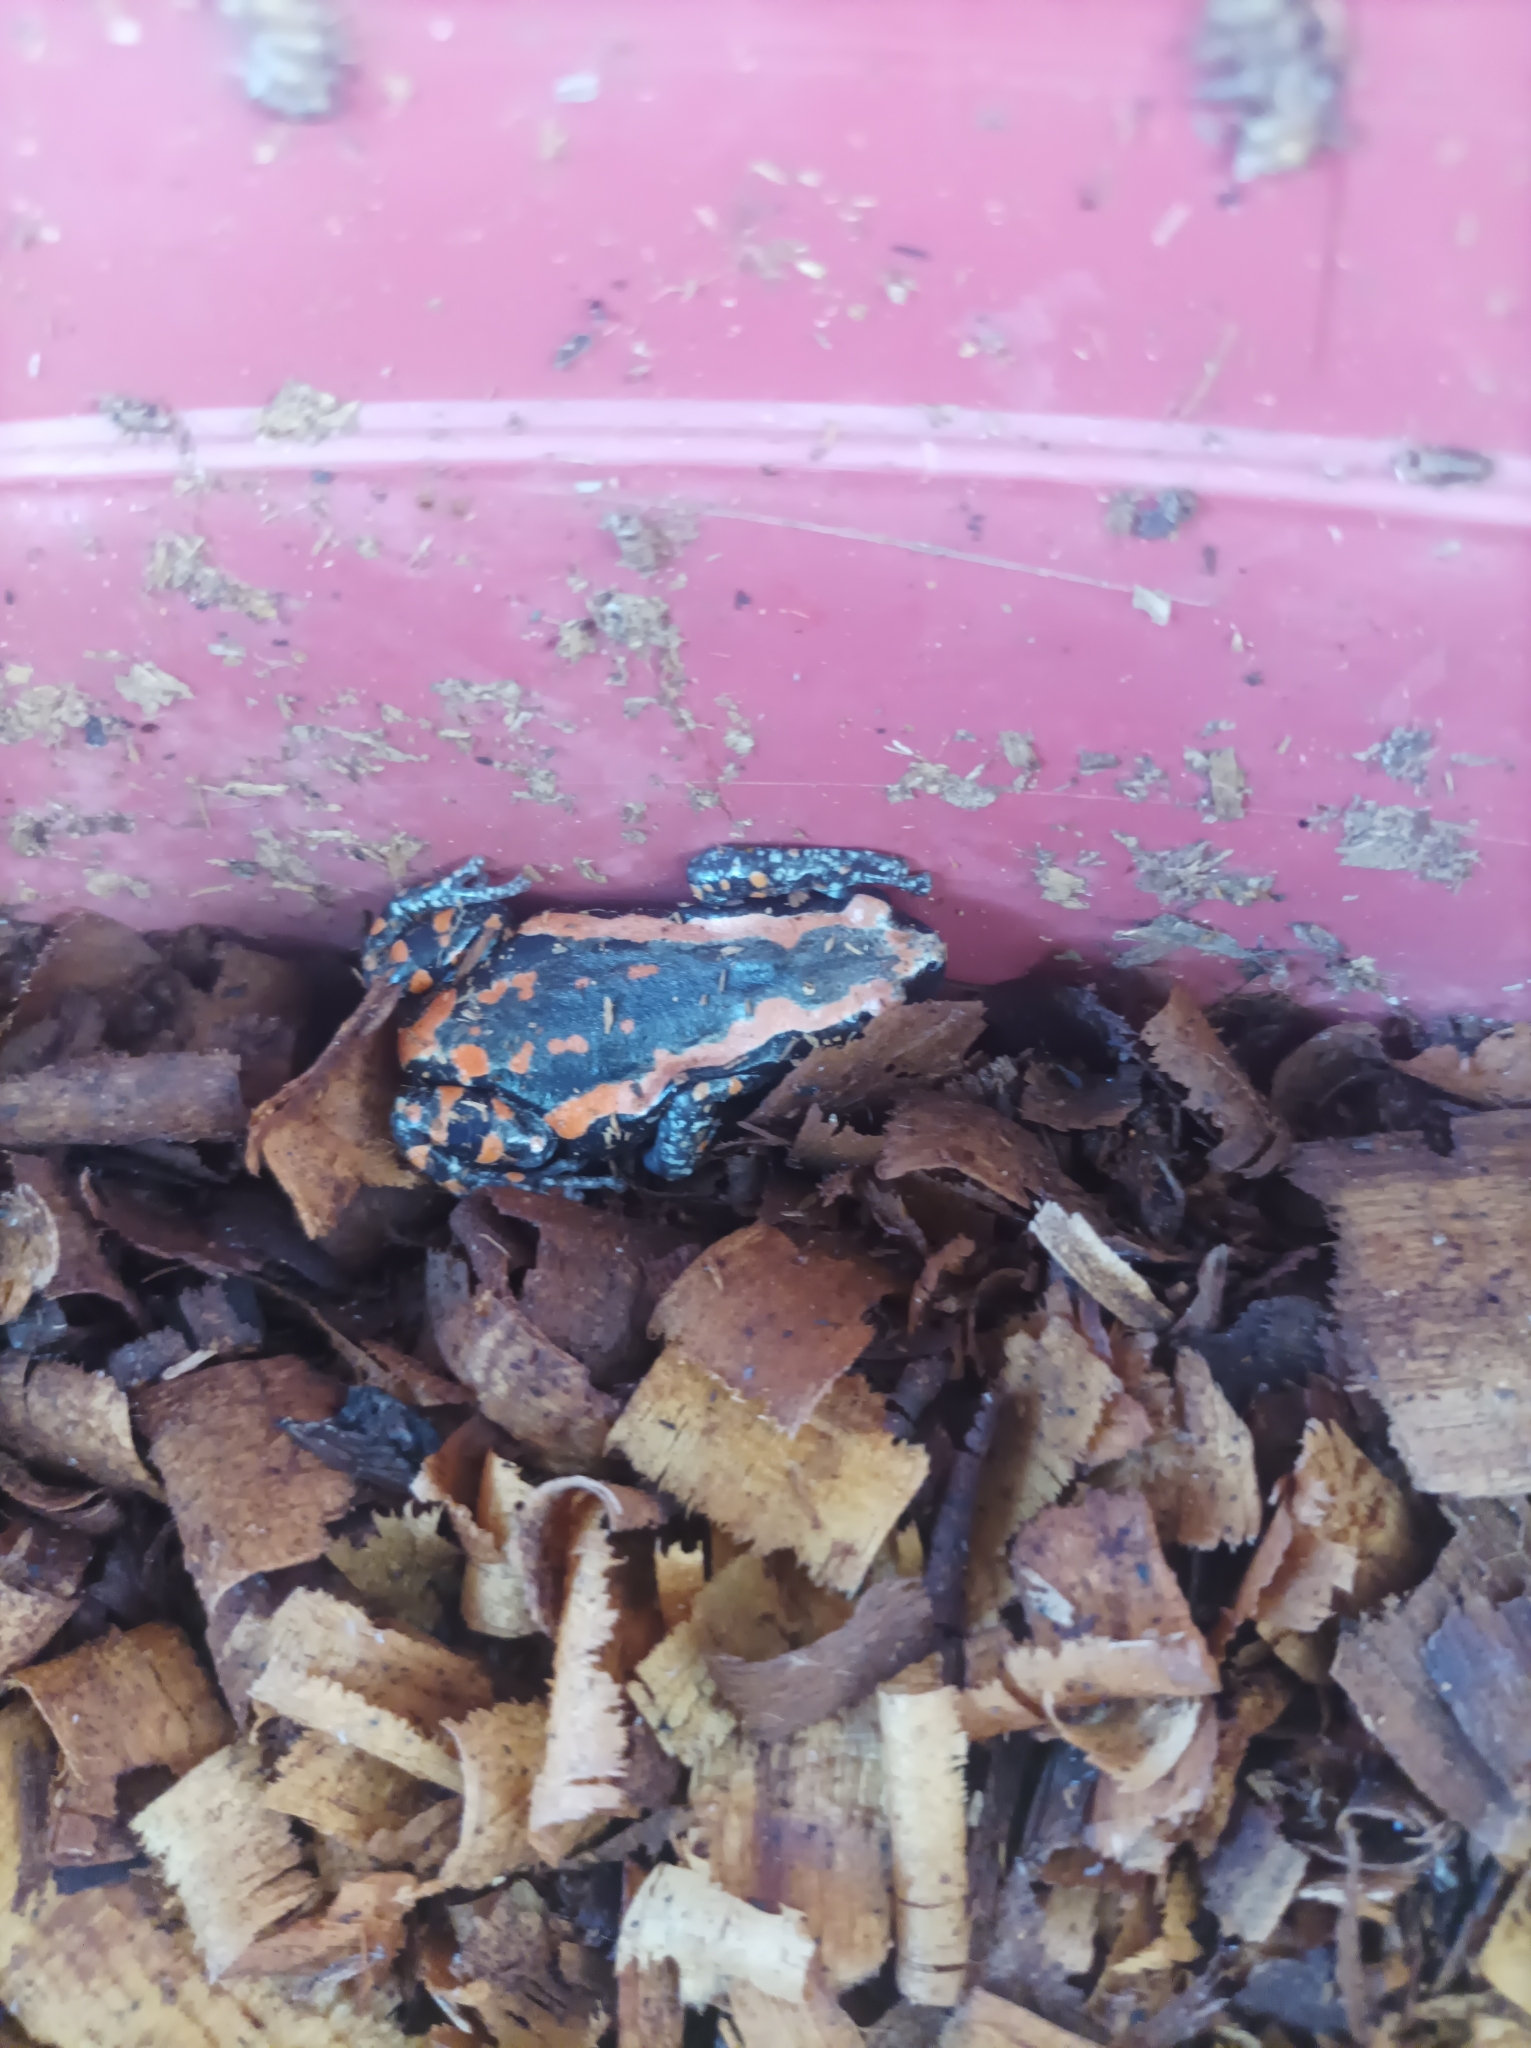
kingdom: Animalia
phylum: Chordata
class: Amphibia
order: Anura
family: Microhylidae
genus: Phrynomantis
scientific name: Phrynomantis bifasciatus
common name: Banded rubber frog
